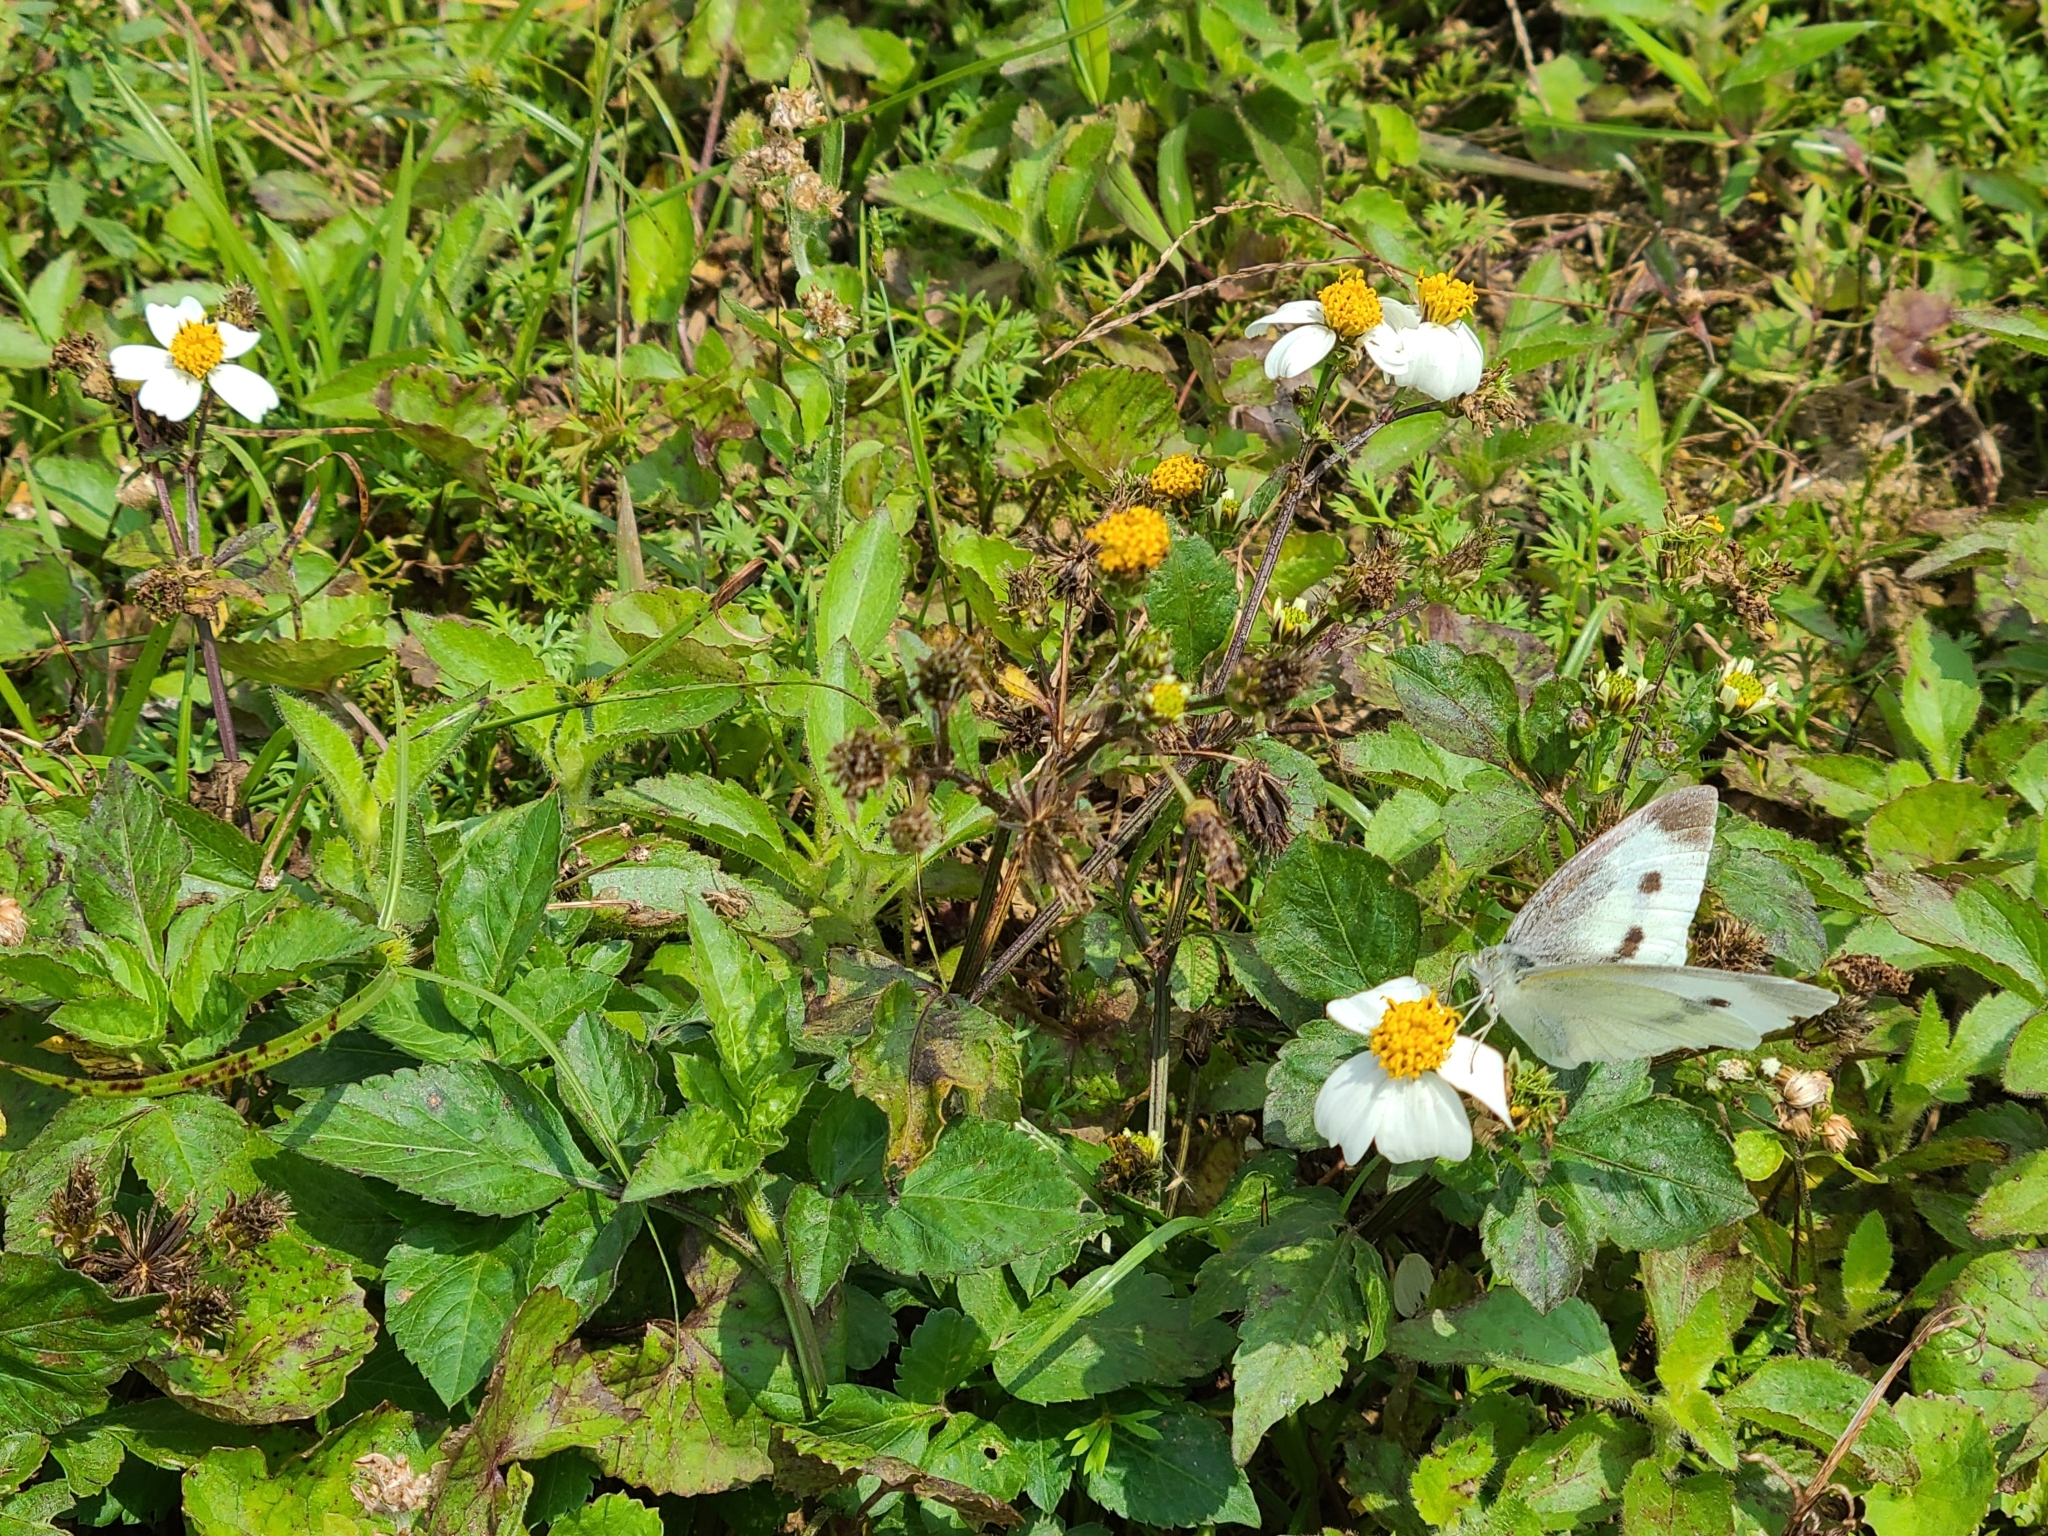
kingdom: Plantae
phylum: Tracheophyta
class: Magnoliopsida
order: Asterales
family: Asteraceae
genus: Bidens
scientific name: Bidens alba
